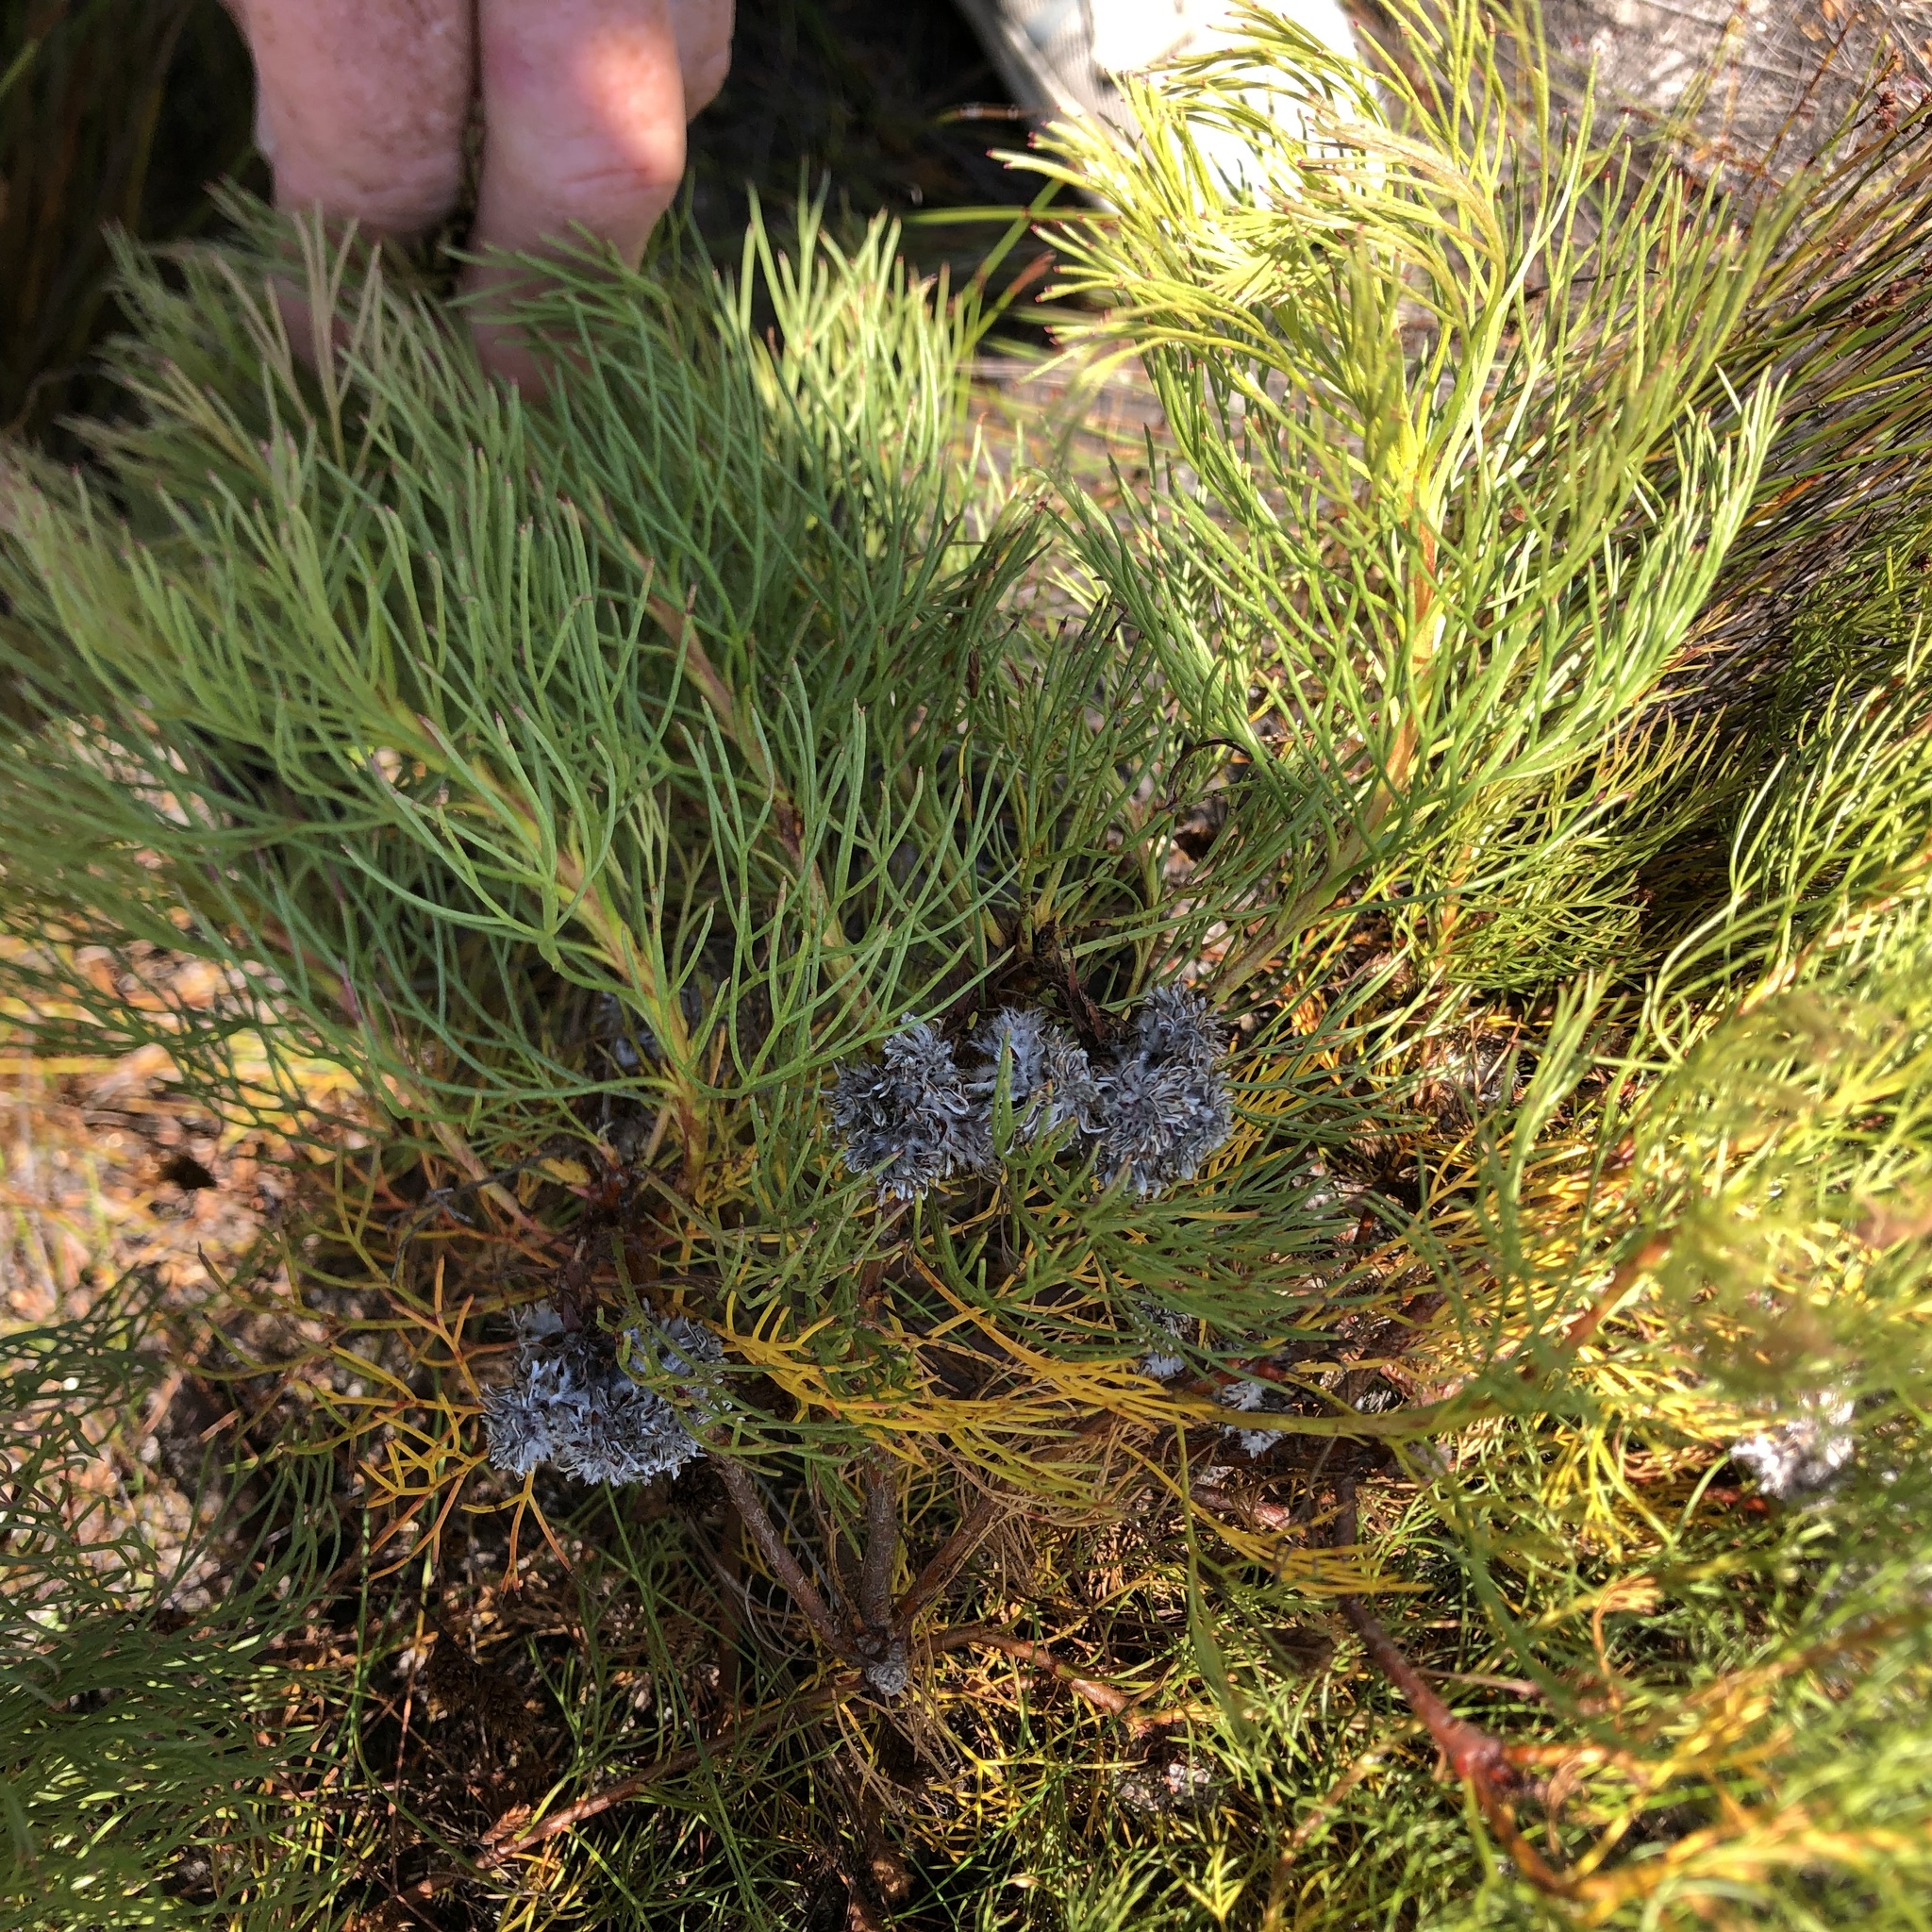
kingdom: Plantae
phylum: Tracheophyta
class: Magnoliopsida
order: Proteales
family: Proteaceae
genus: Serruria
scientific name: Serruria glomerata
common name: Cluster spiderhead
